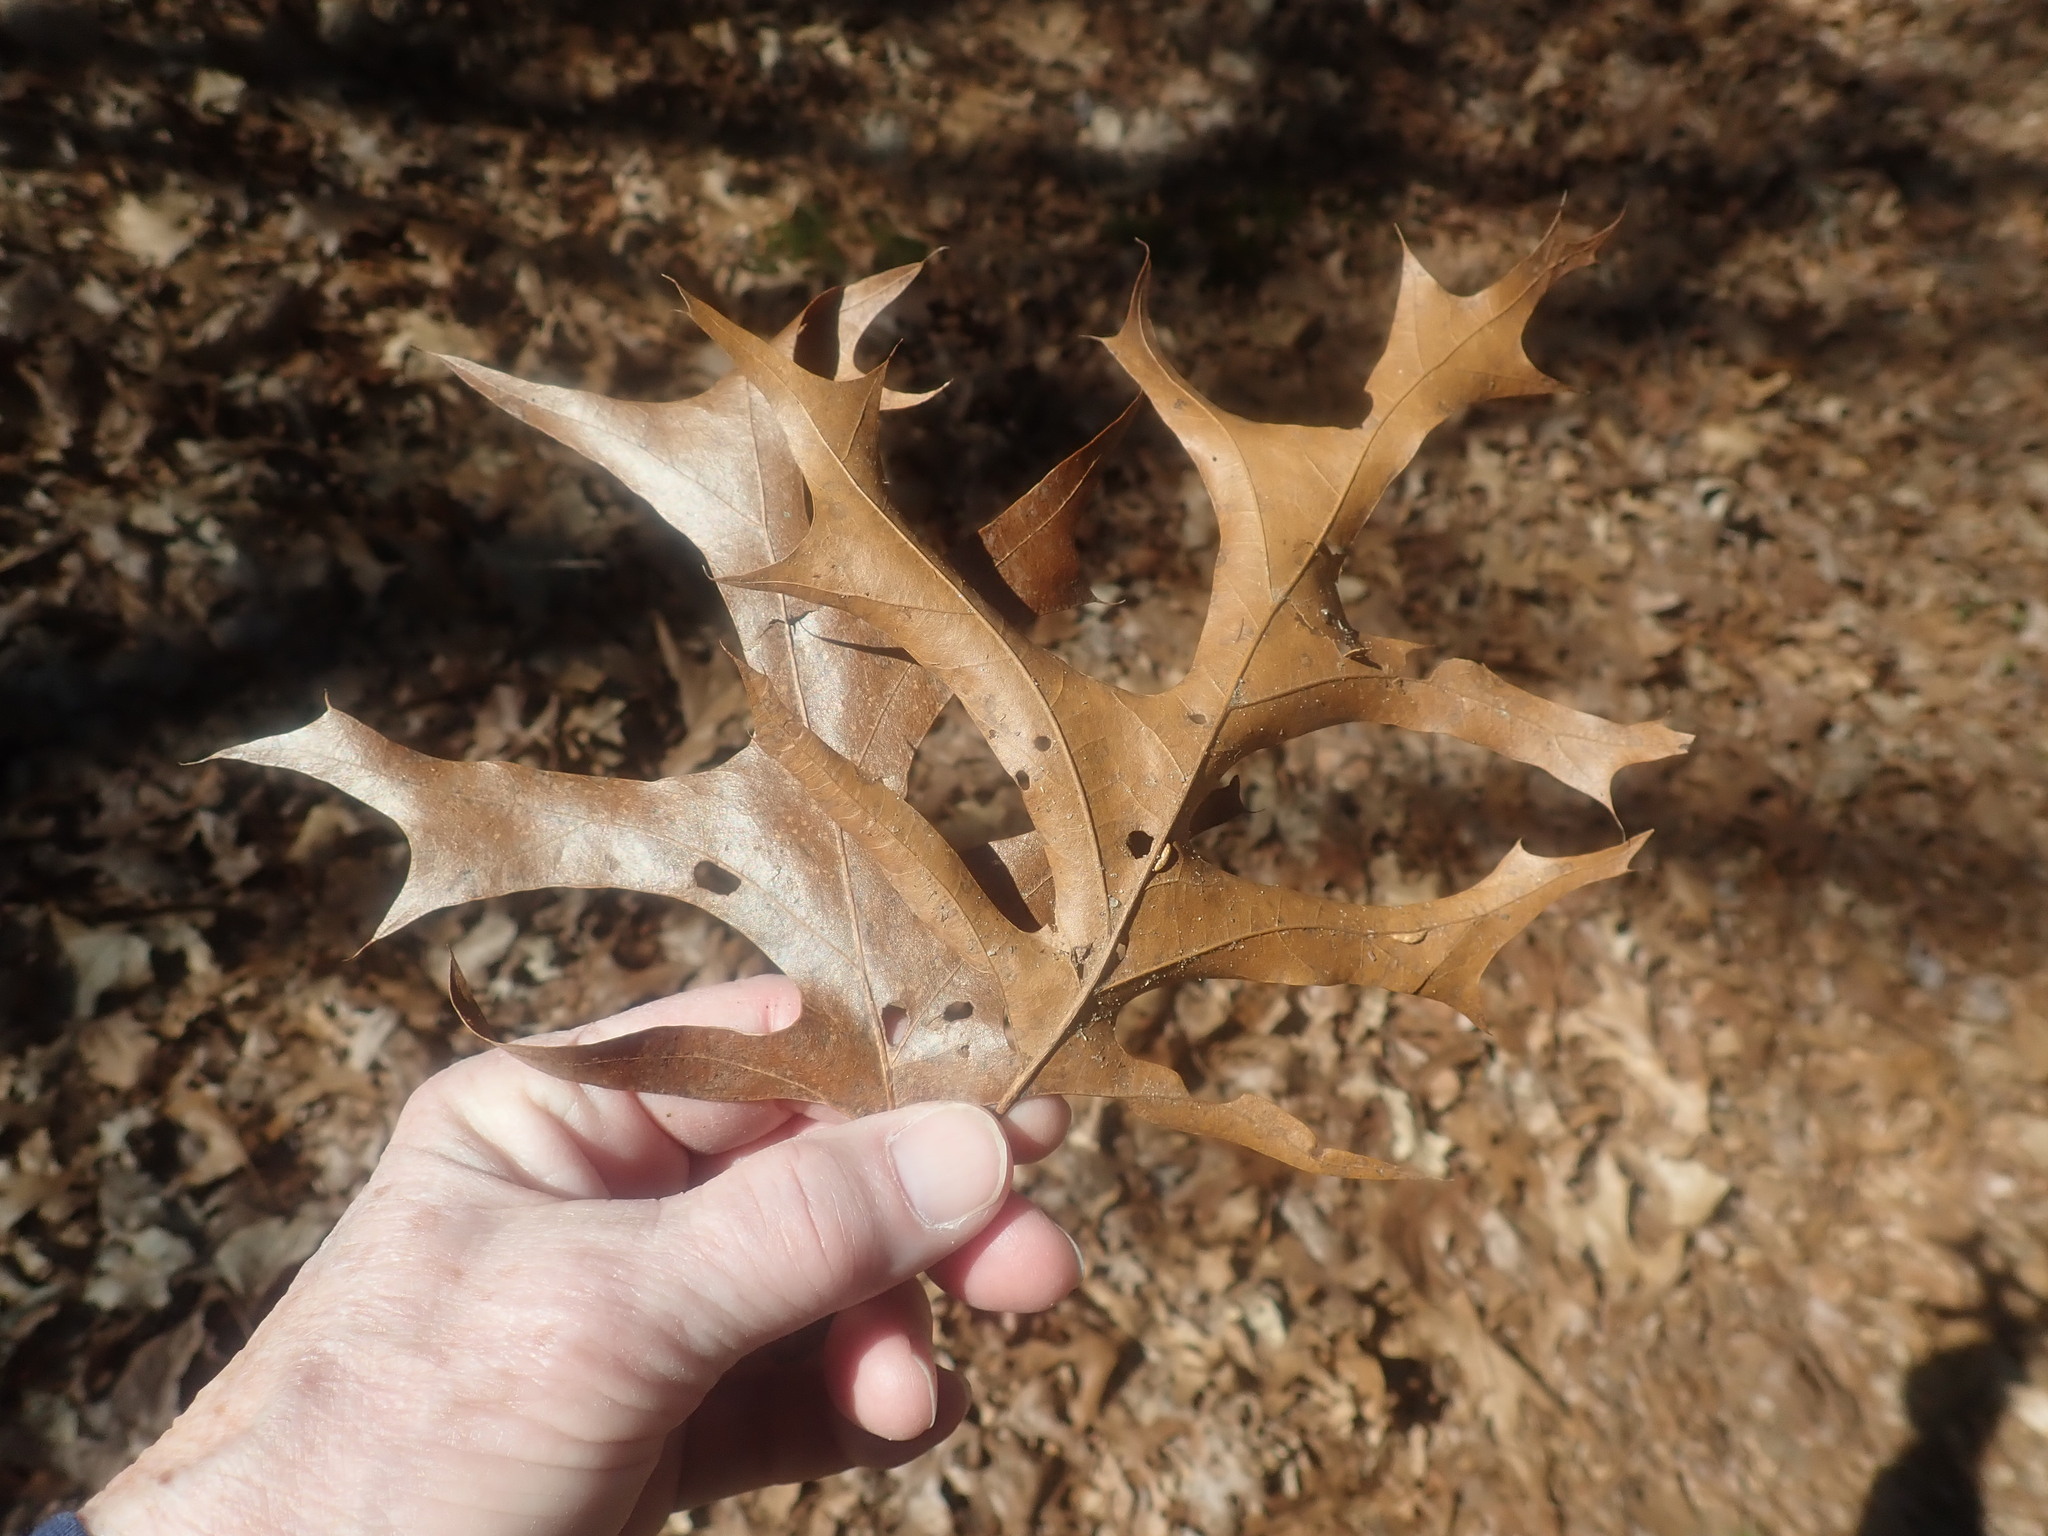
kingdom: Plantae
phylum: Tracheophyta
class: Magnoliopsida
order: Fagales
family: Fagaceae
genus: Quercus
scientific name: Quercus coccinea
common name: Scarlet oak
